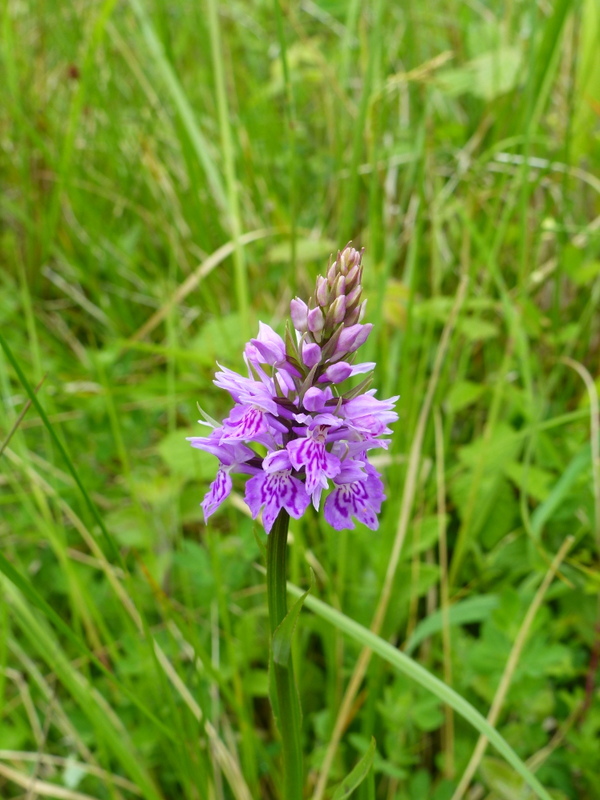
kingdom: Plantae
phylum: Tracheophyta
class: Liliopsida
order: Asparagales
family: Orchidaceae
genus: Dactylorhiza
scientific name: Dactylorhiza maculata
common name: Heath spotted-orchid
